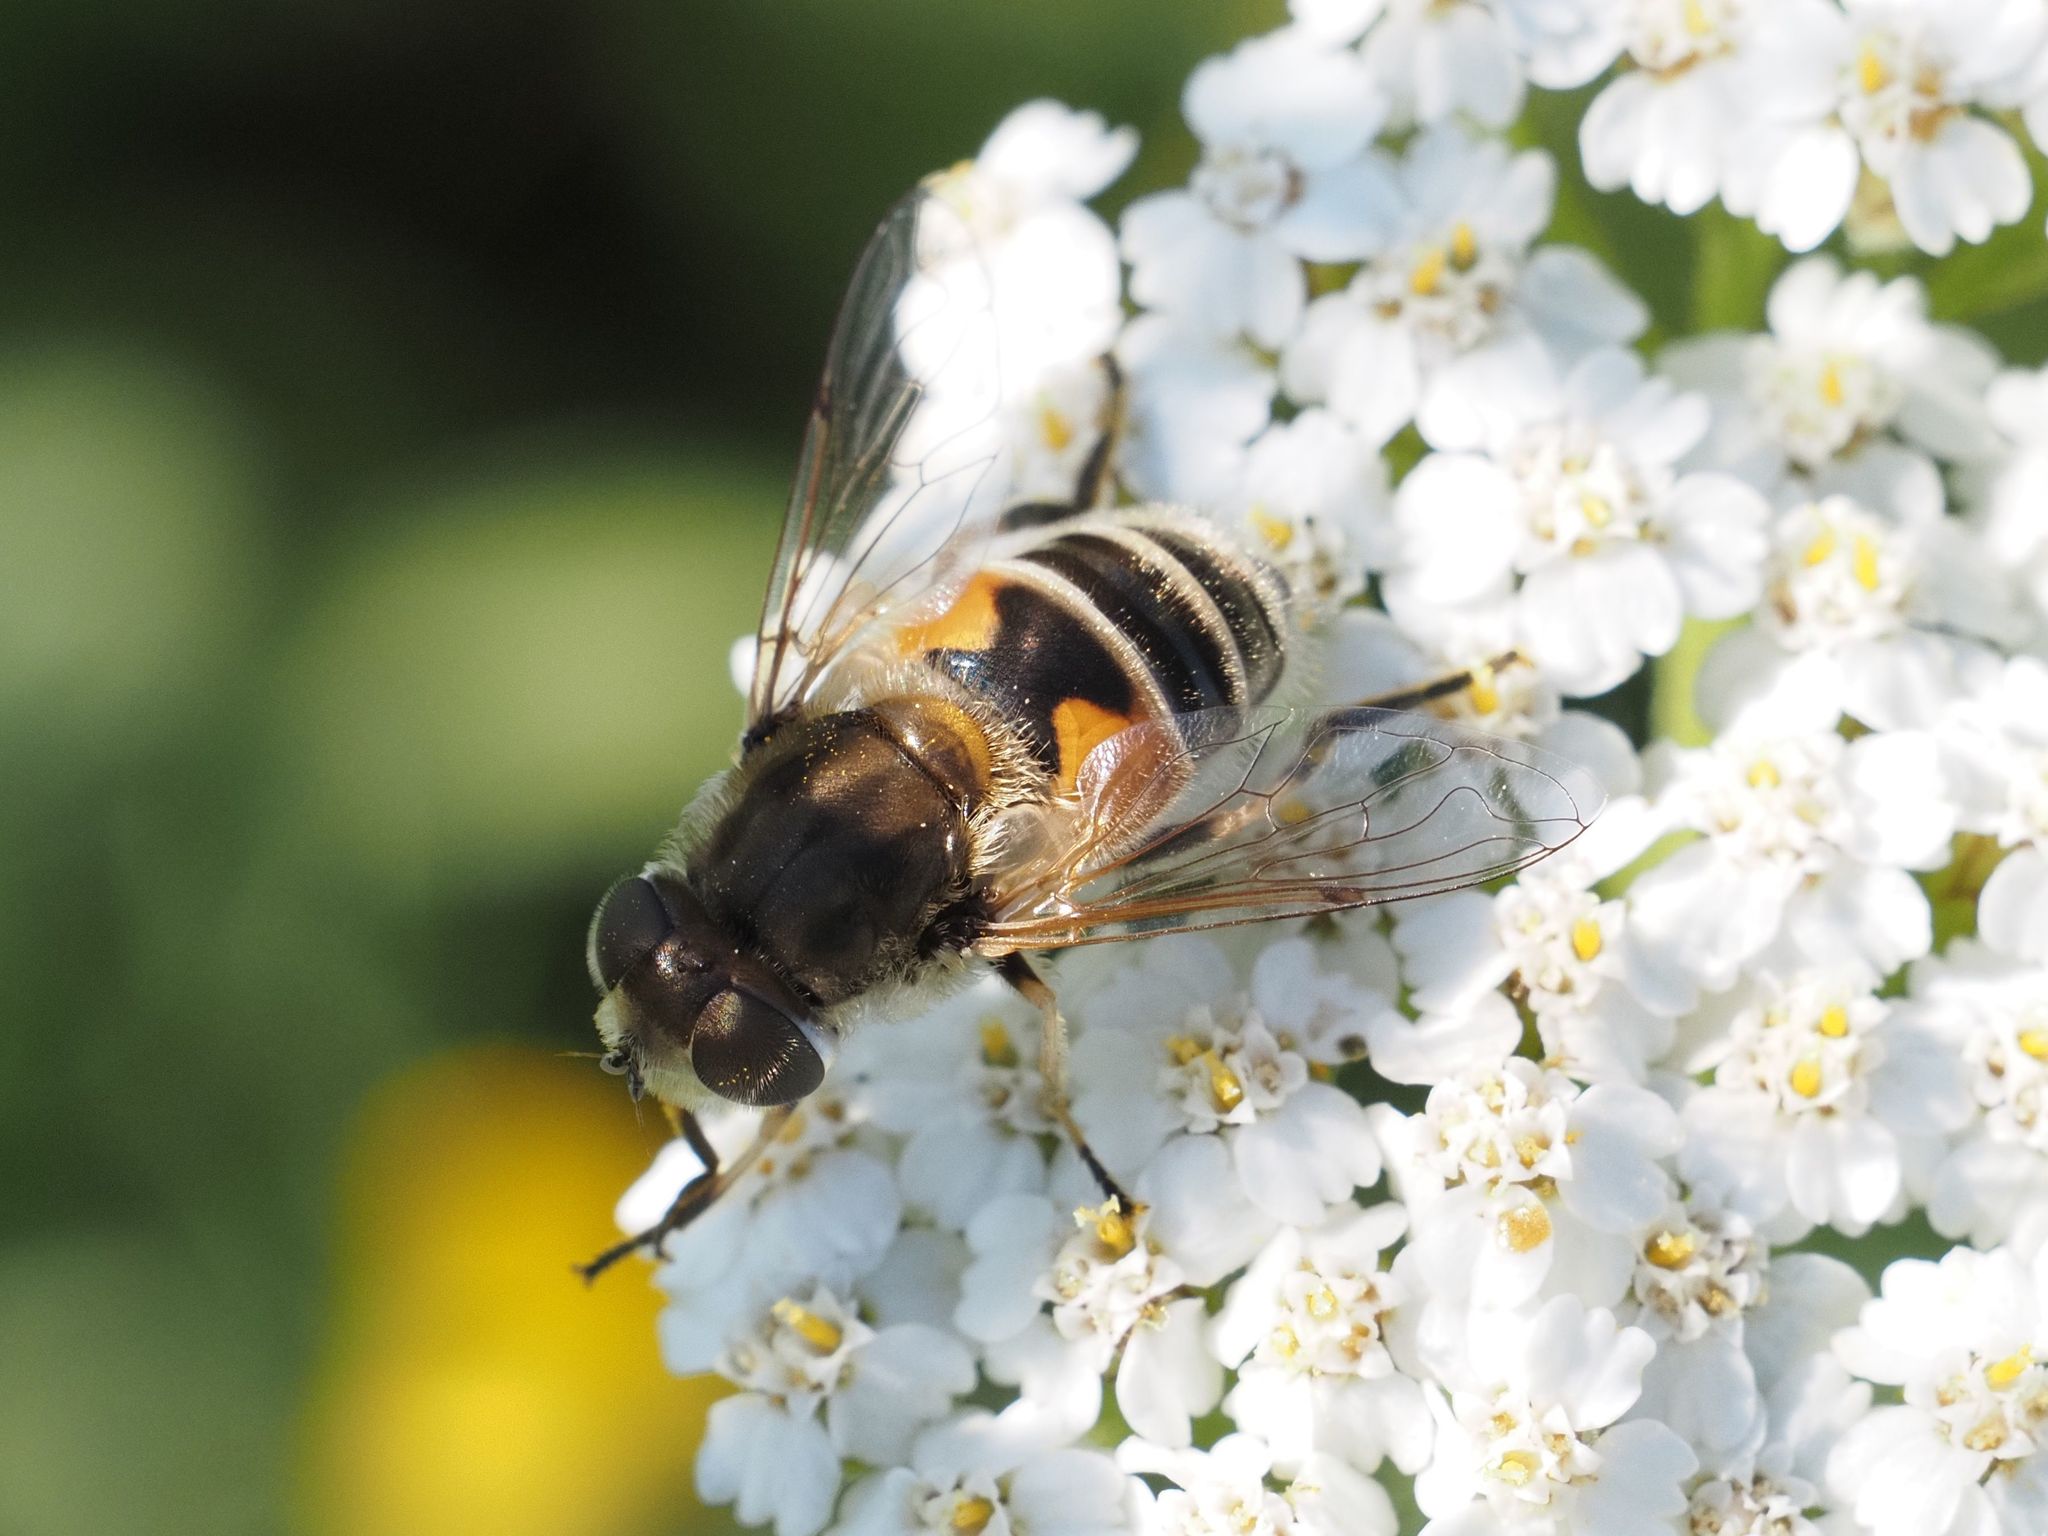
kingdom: Animalia
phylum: Arthropoda
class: Insecta
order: Diptera
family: Syrphidae
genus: Eristalis
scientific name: Eristalis arbustorum
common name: Hover fly
